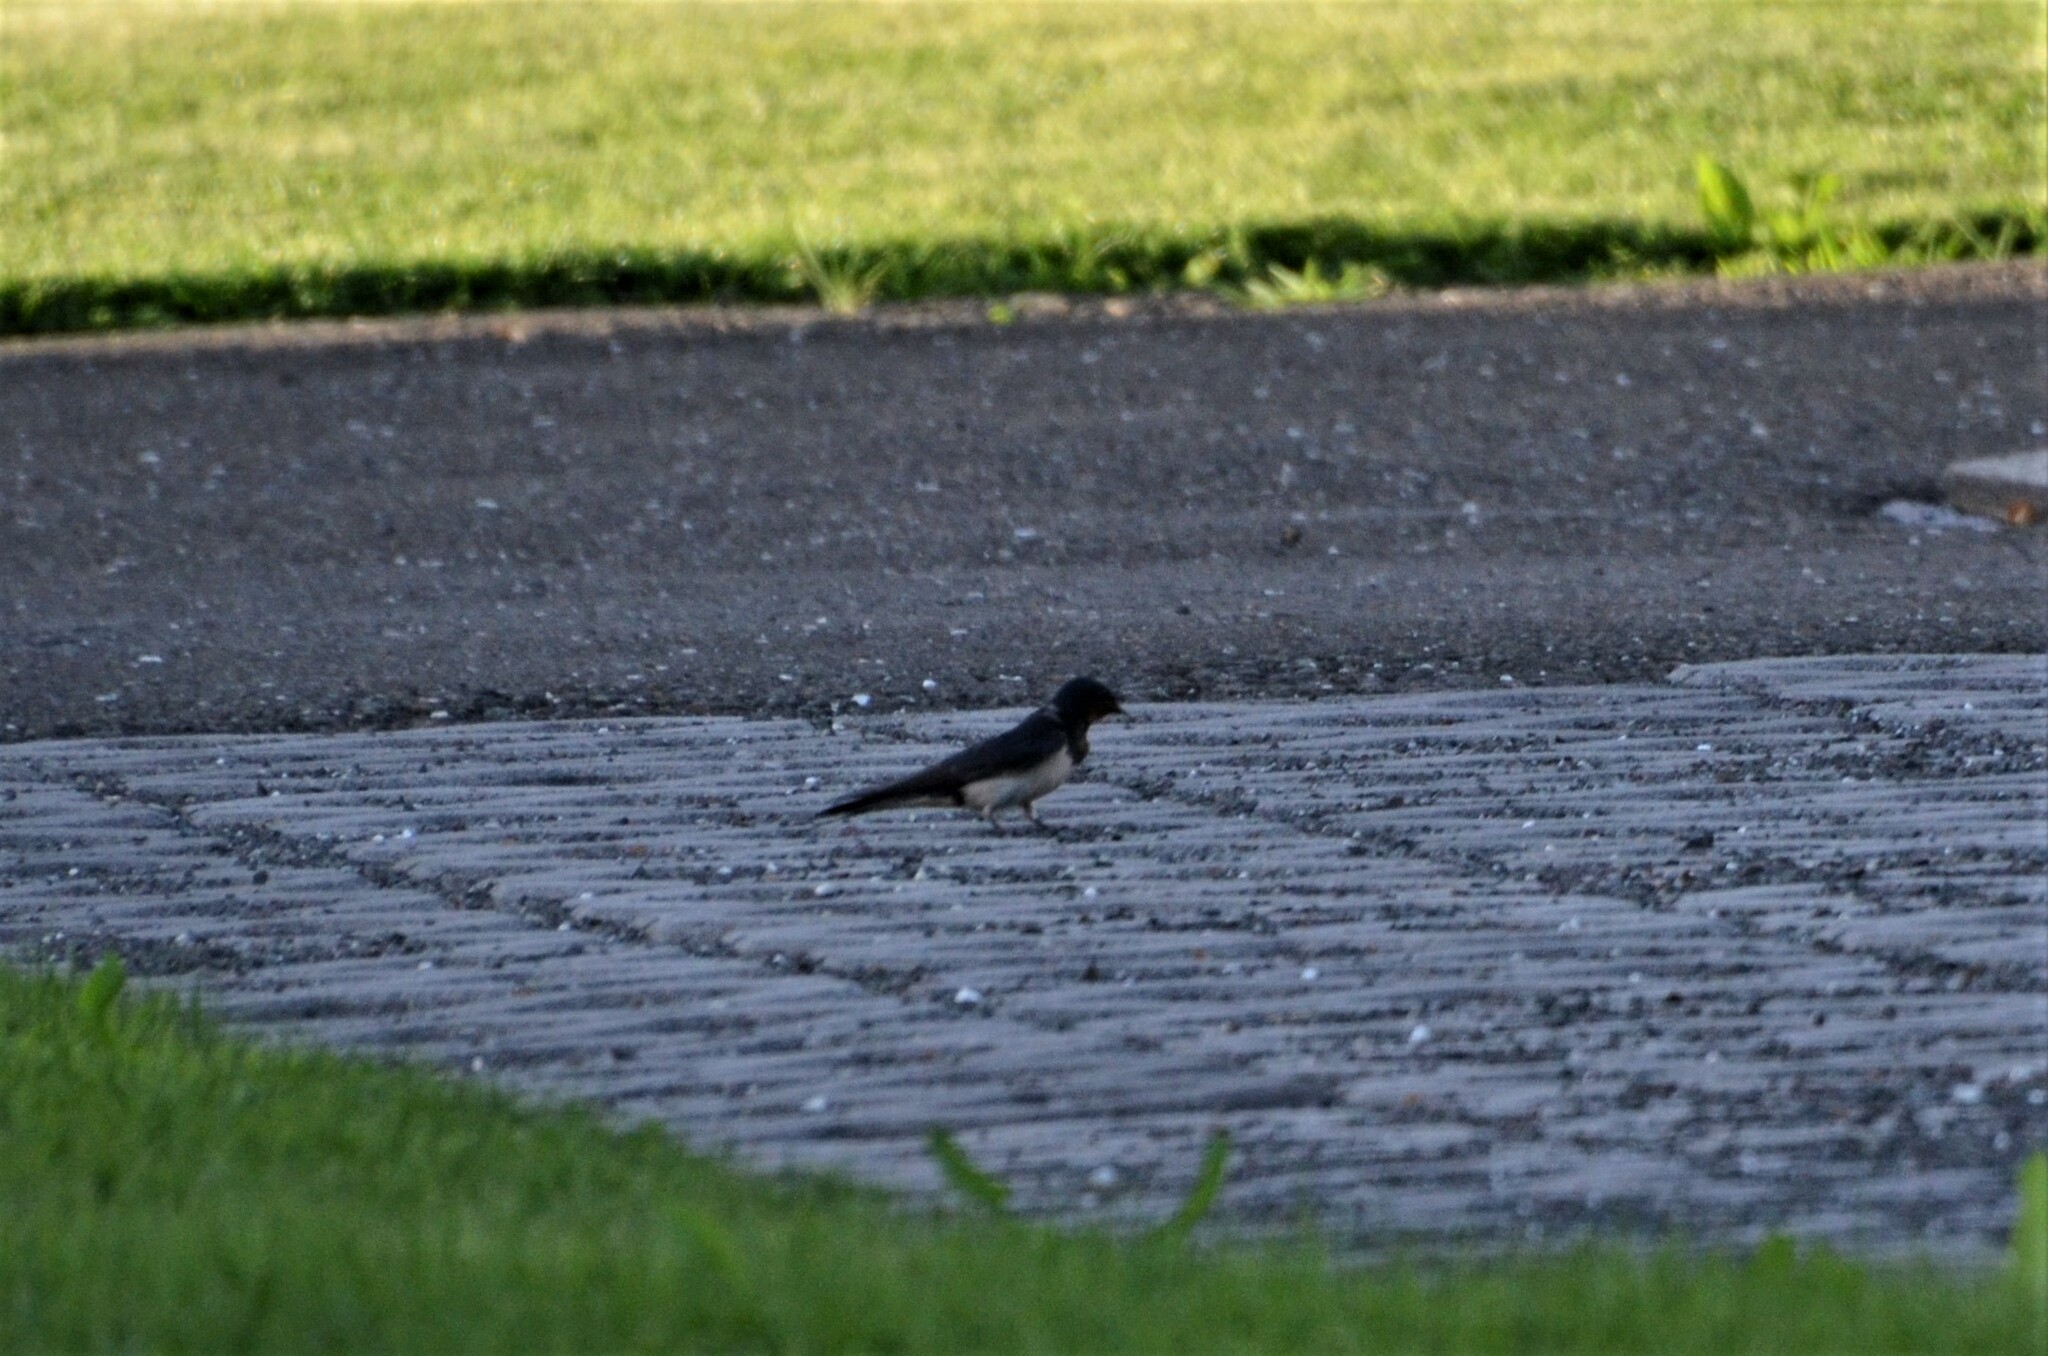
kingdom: Animalia
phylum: Chordata
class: Aves
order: Passeriformes
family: Hirundinidae
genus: Hirundo
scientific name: Hirundo rustica
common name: Barn swallow
